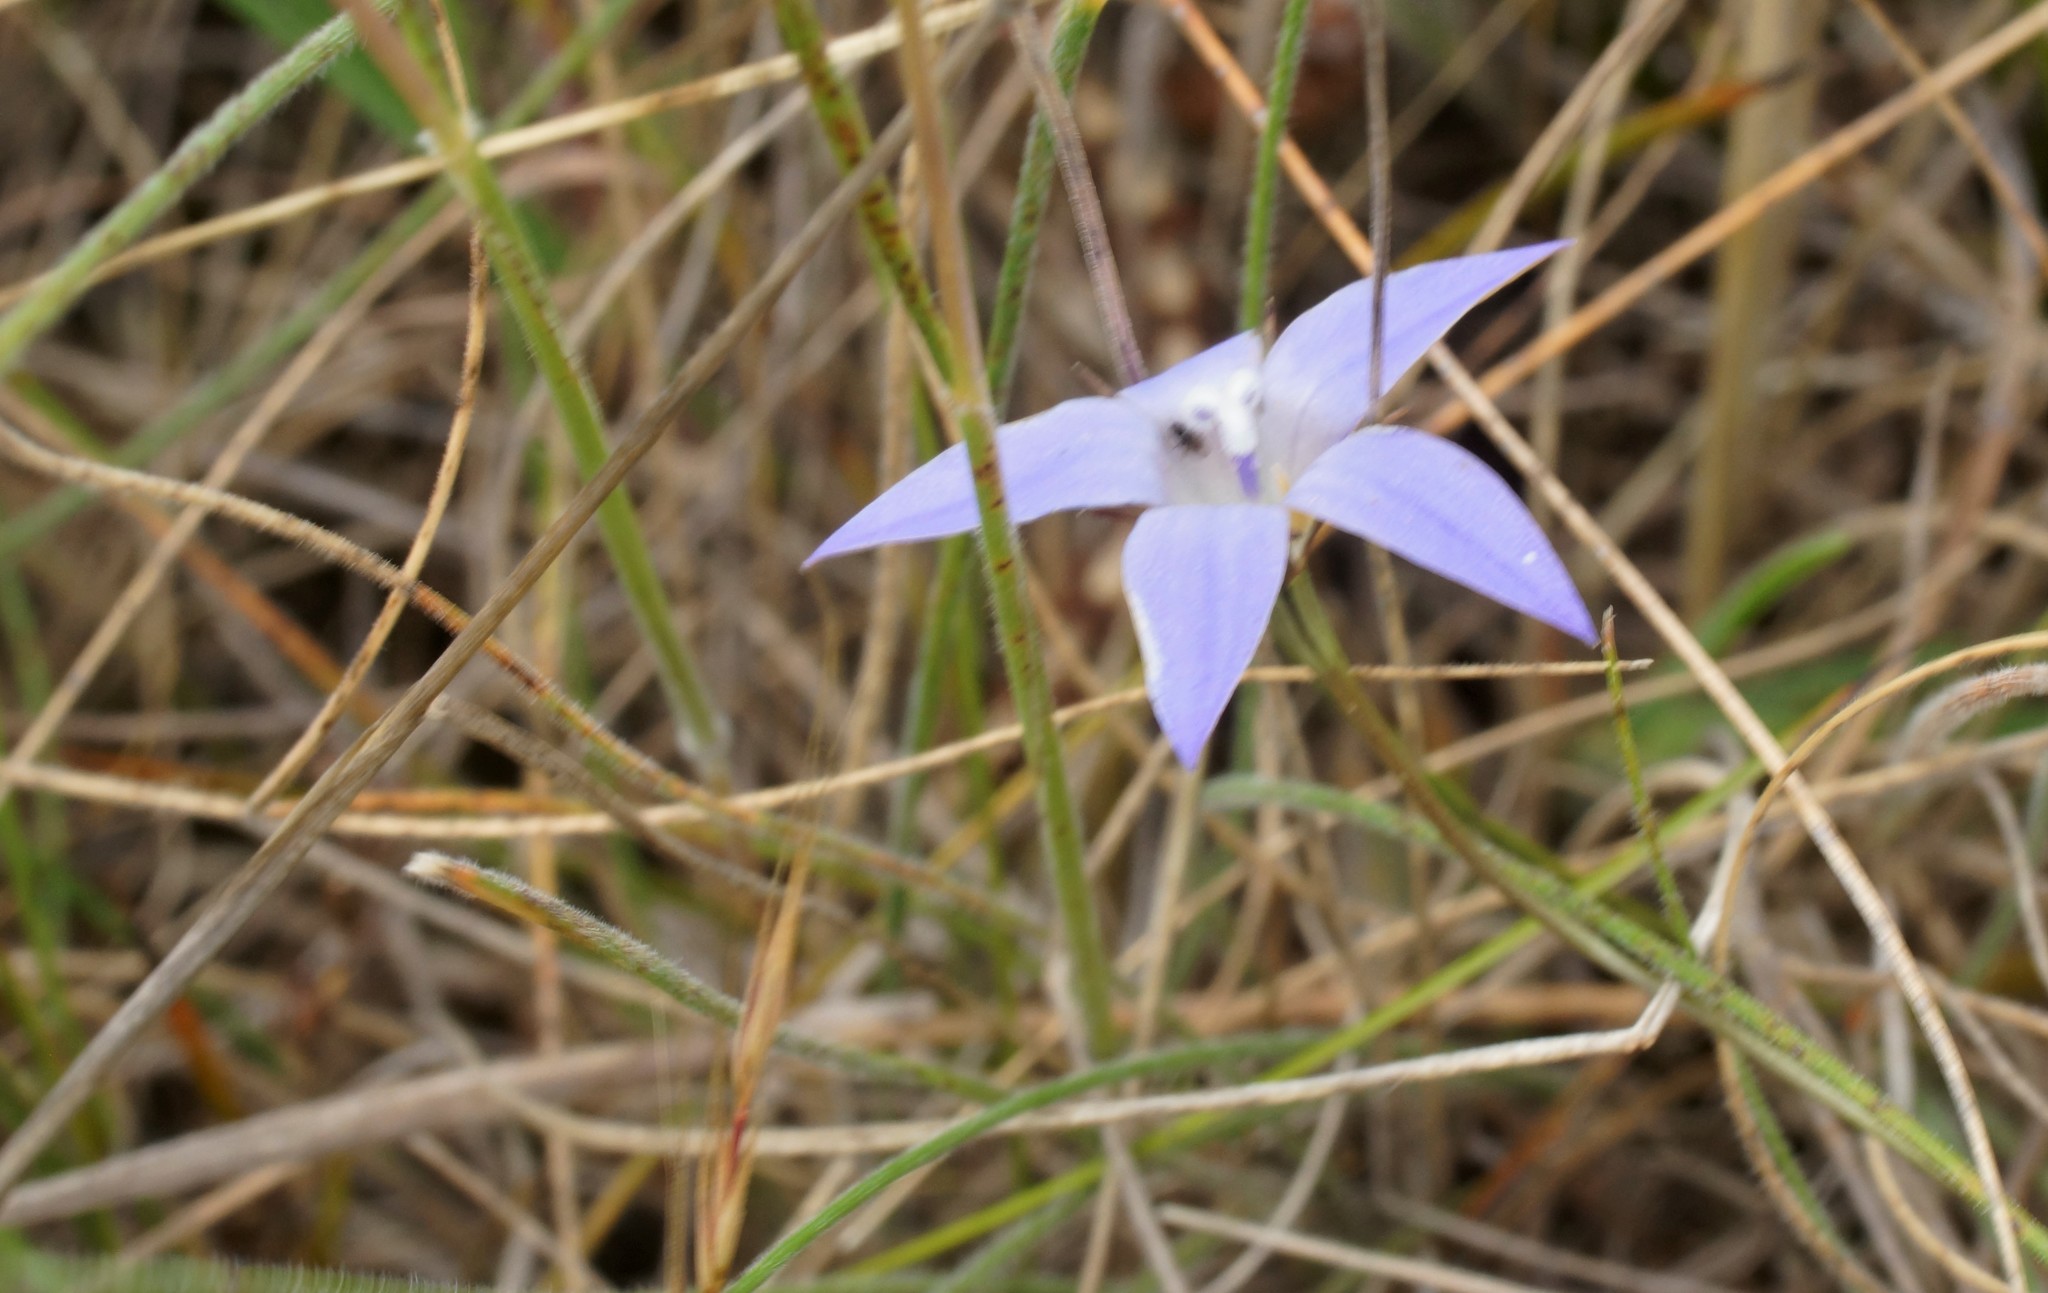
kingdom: Plantae
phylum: Tracheophyta
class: Magnoliopsida
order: Asterales
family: Campanulaceae
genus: Wahlenbergia
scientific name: Wahlenbergia
